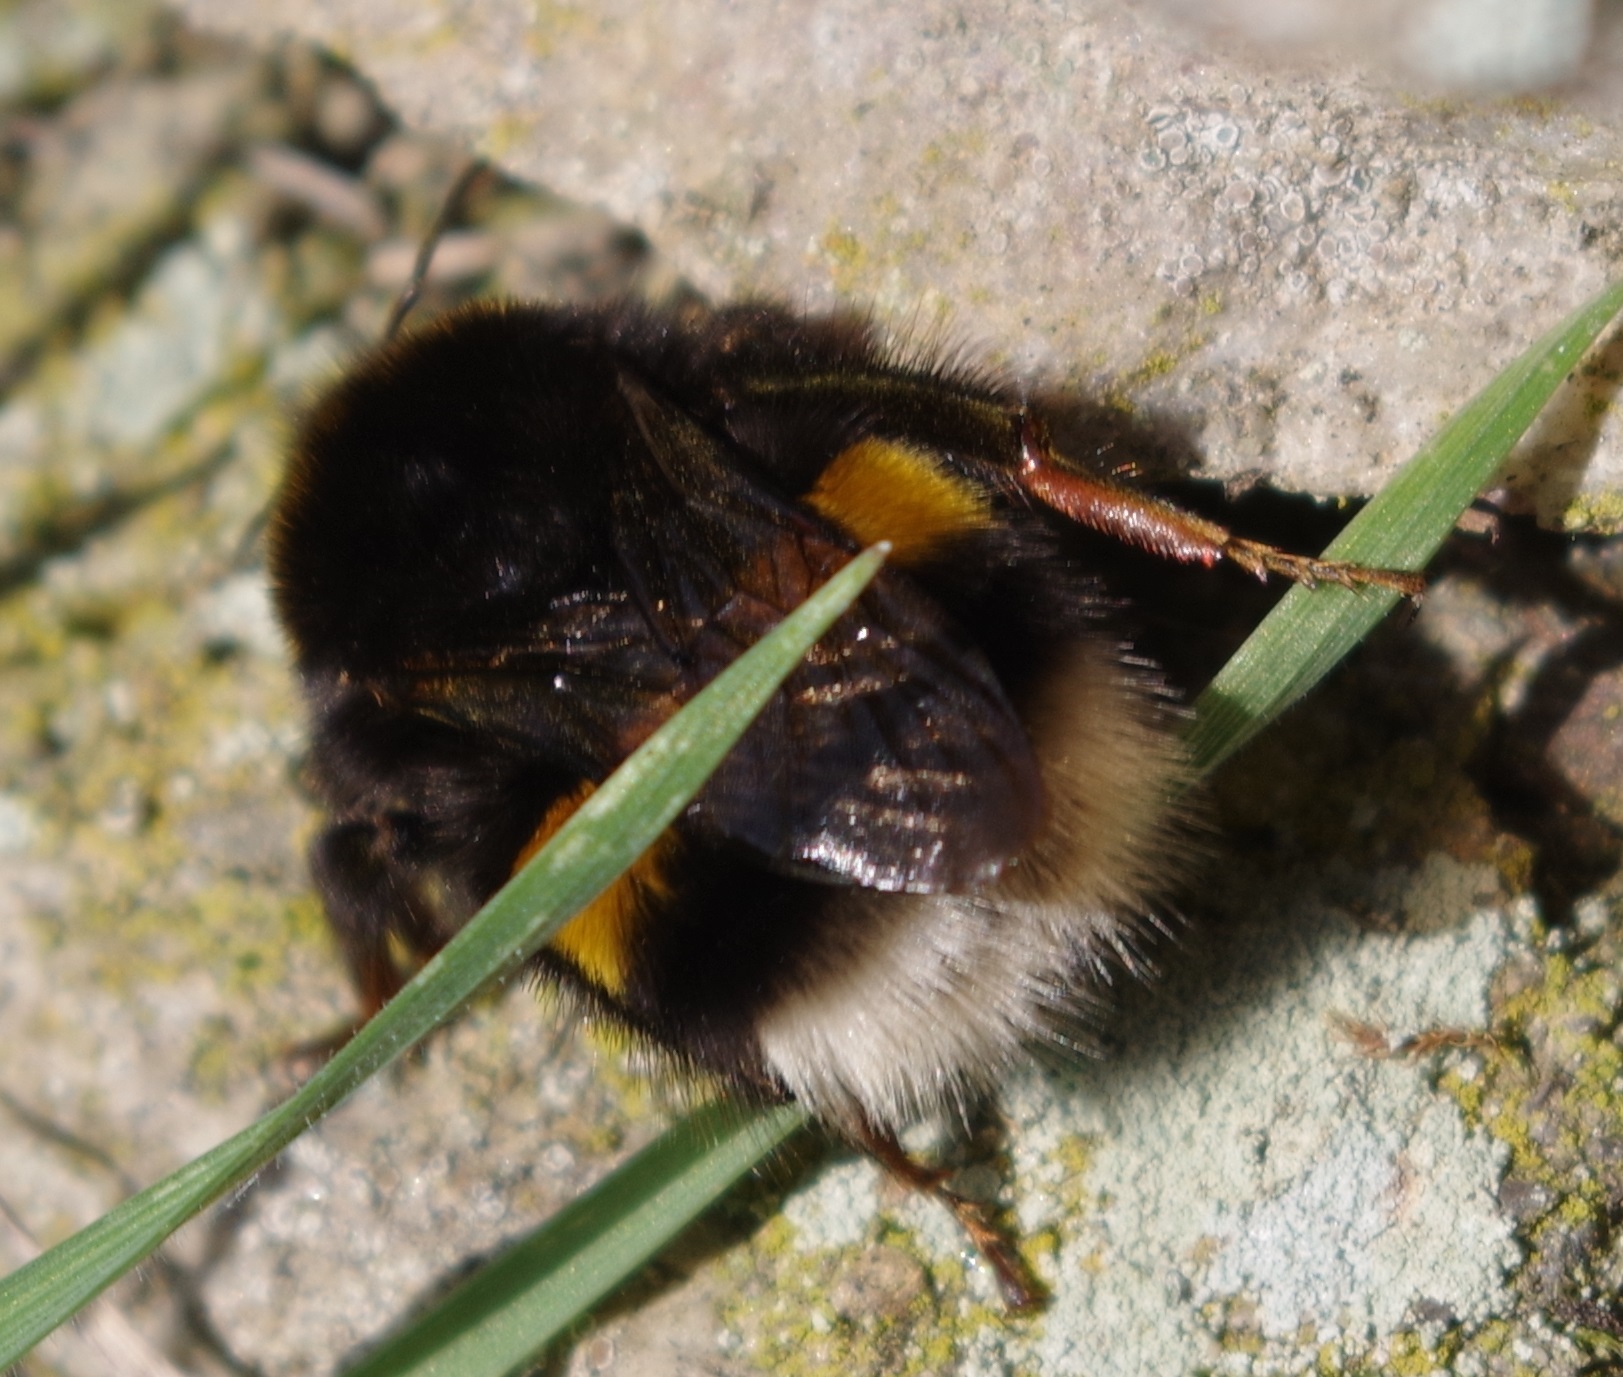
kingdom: Animalia
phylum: Arthropoda
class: Insecta
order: Hymenoptera
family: Apidae
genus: Bombus
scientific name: Bombus
